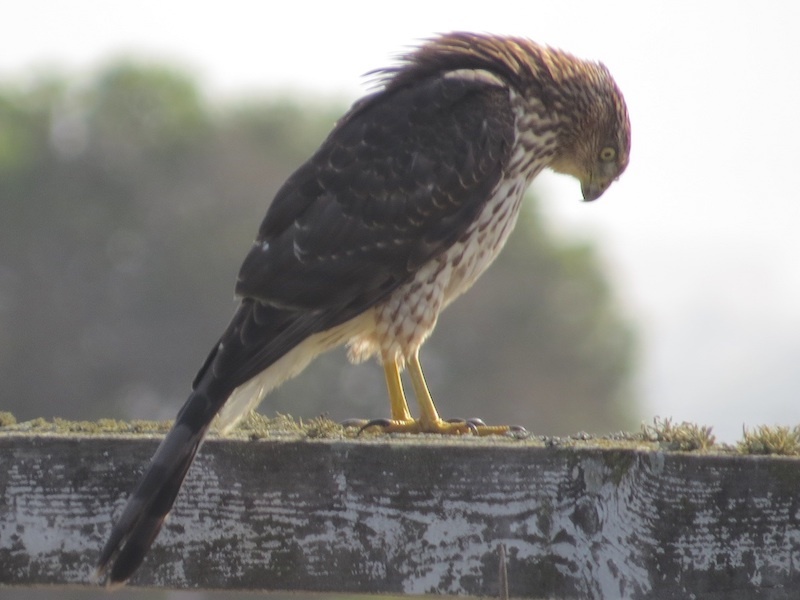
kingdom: Animalia
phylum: Chordata
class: Aves
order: Accipitriformes
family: Accipitridae
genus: Accipiter
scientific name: Accipiter cooperii
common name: Cooper's hawk
